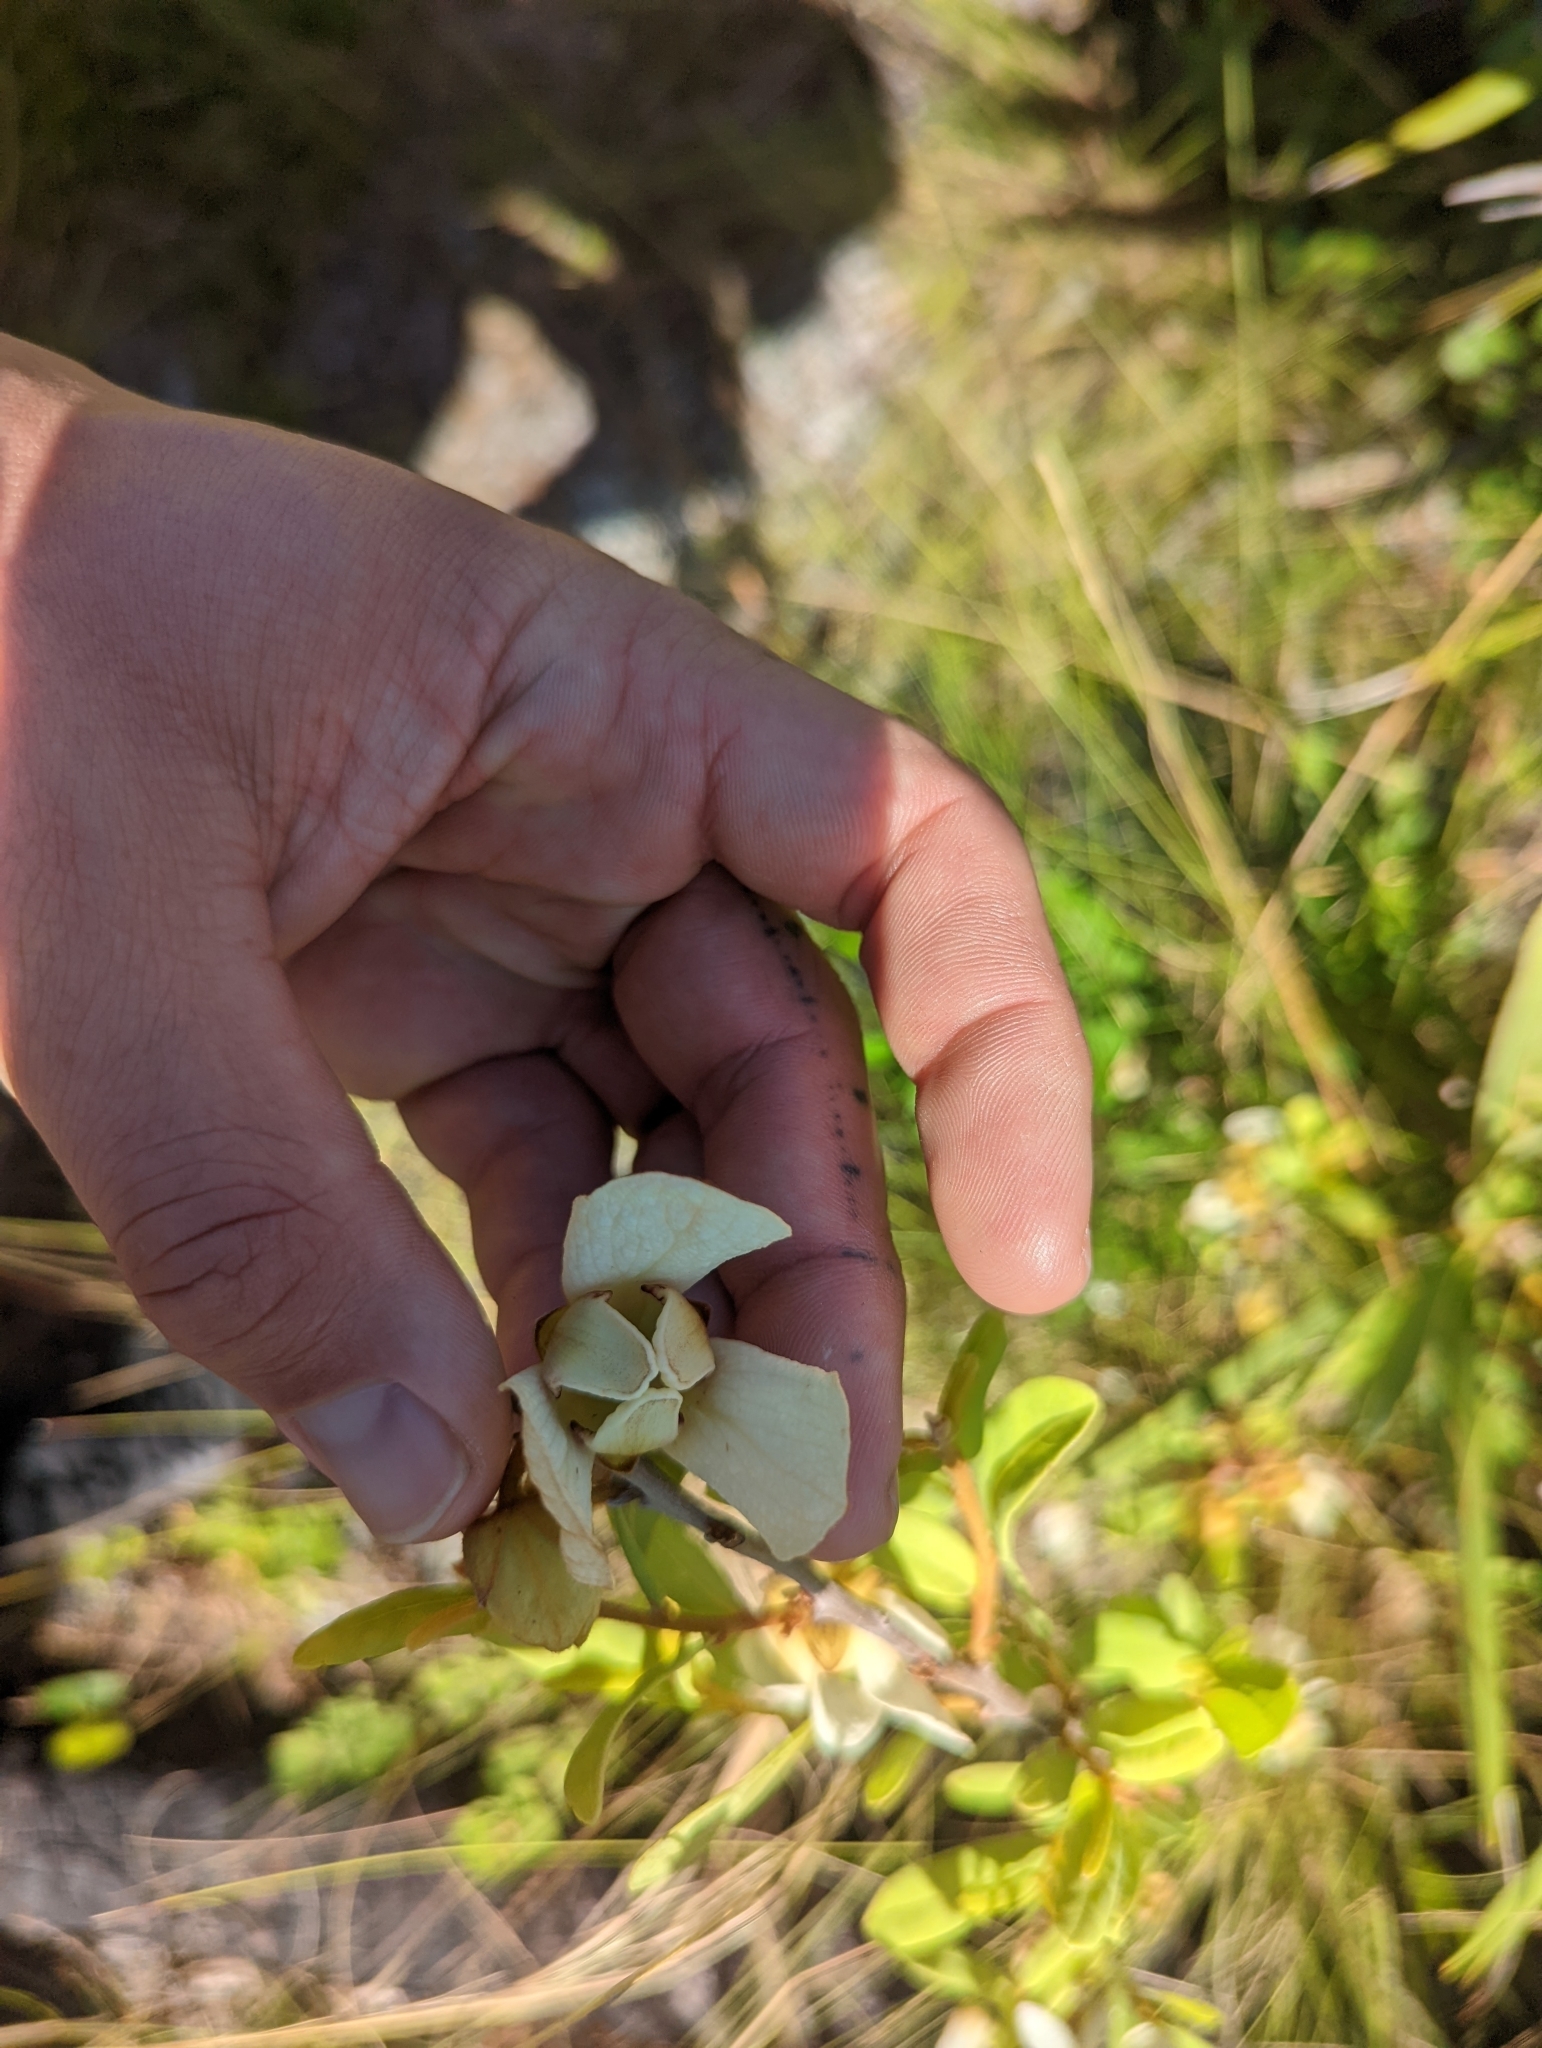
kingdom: Plantae
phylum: Tracheophyta
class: Magnoliopsida
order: Magnoliales
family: Annonaceae
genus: Asimina
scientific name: Asimina reticulata
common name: Flag pawpaw
